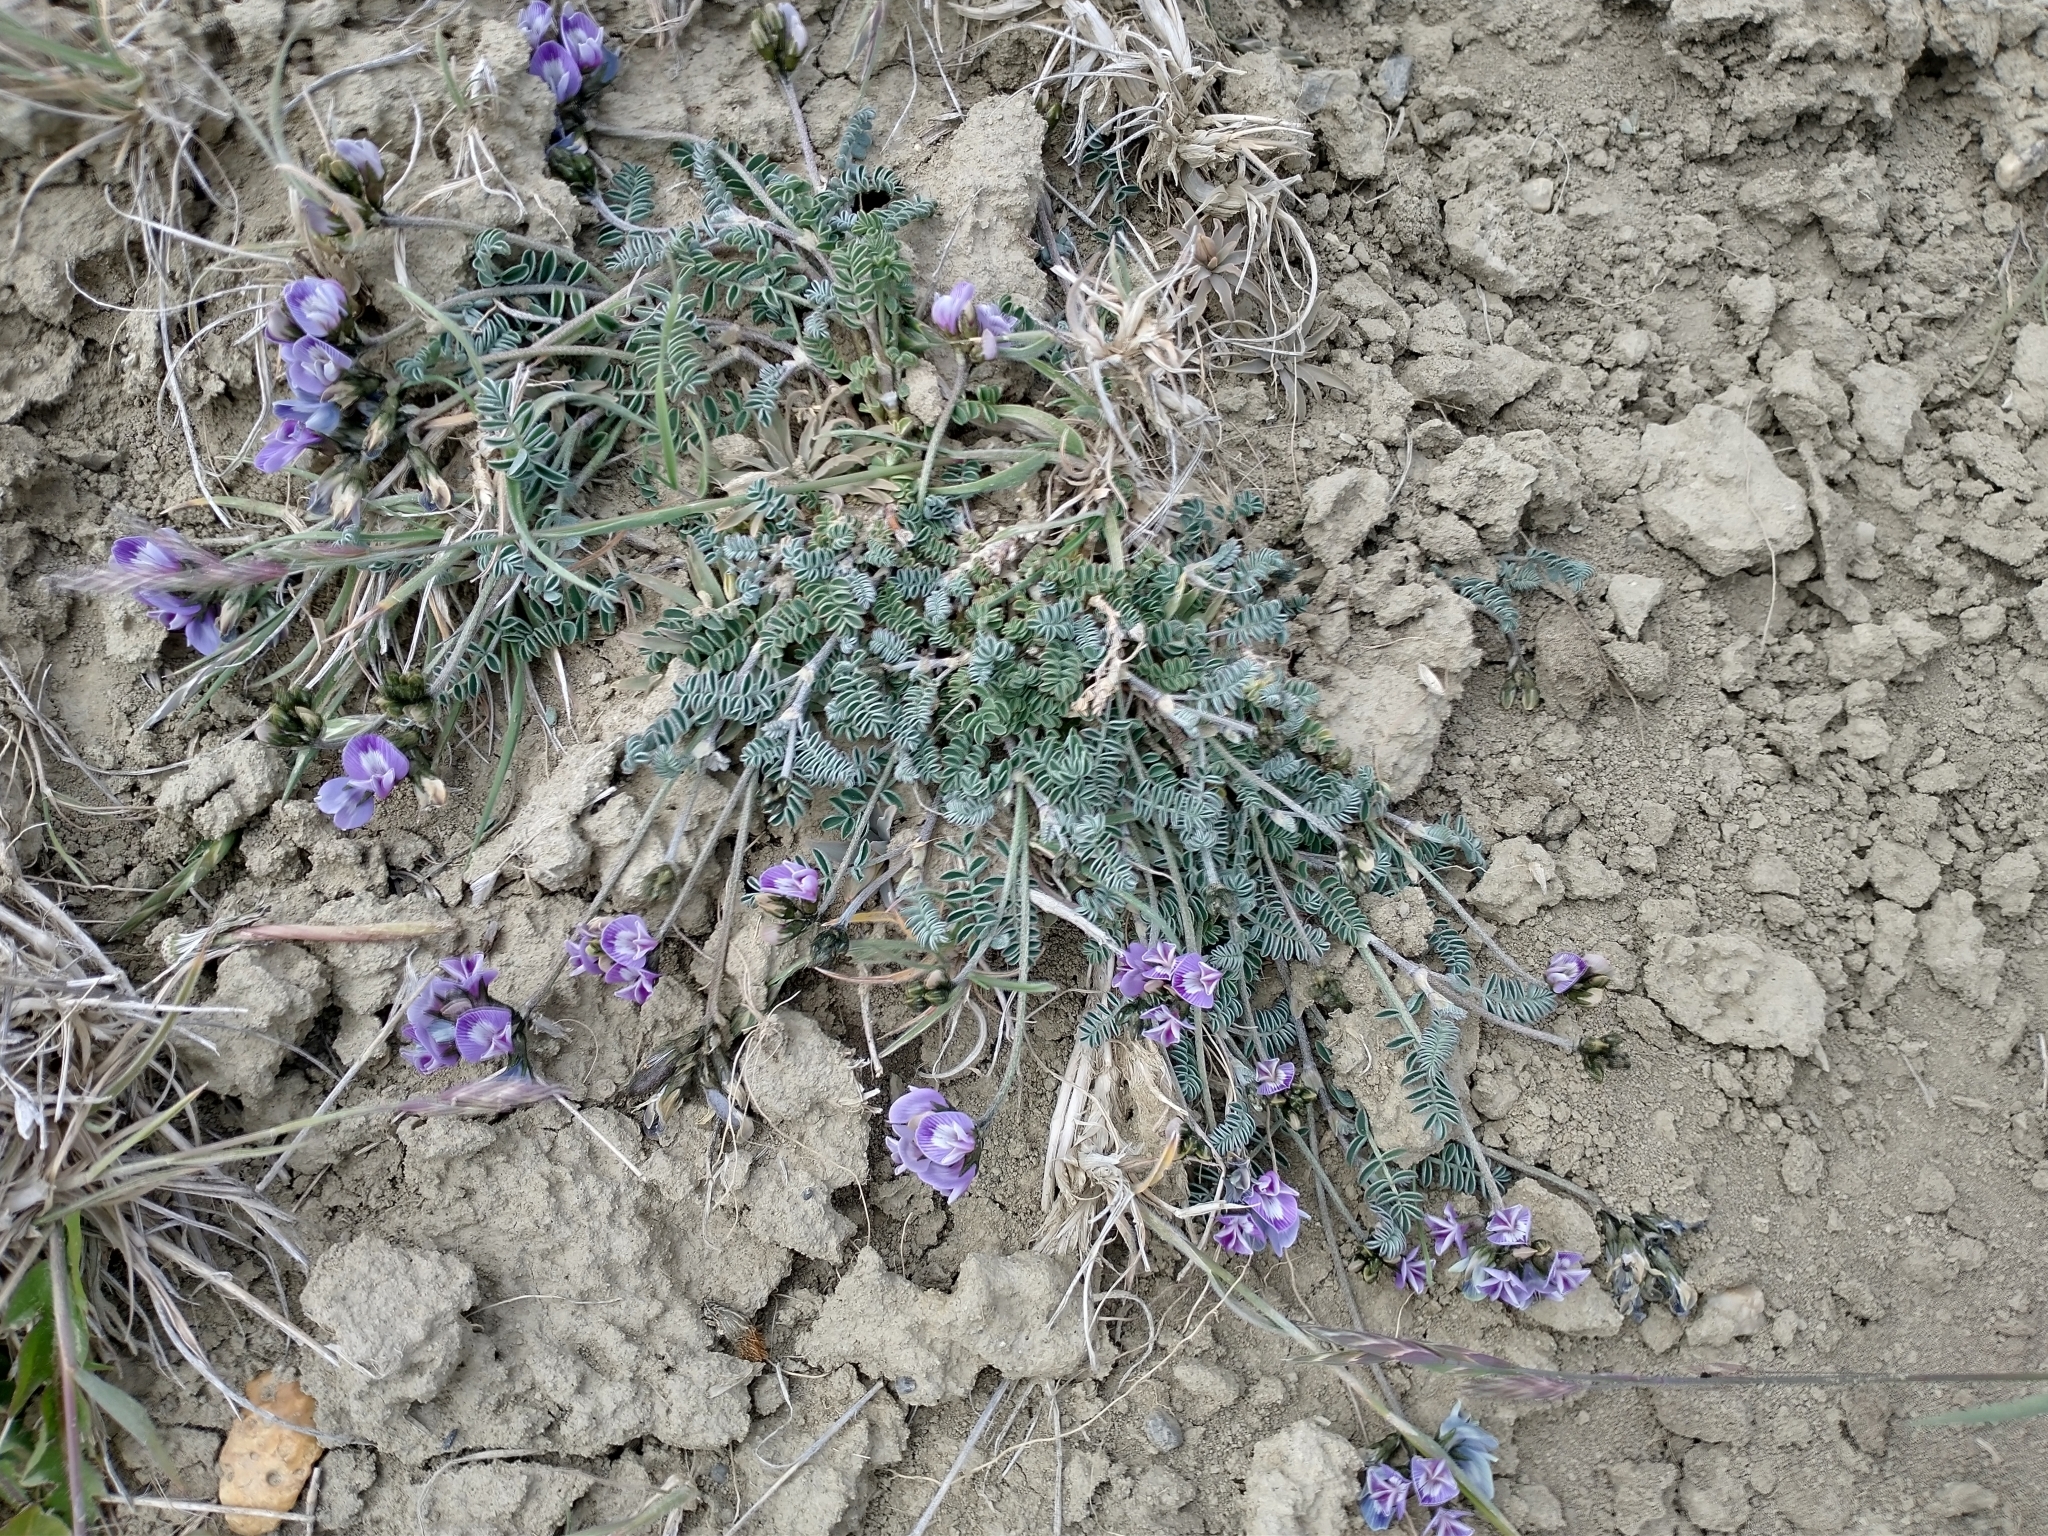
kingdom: Plantae
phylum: Tracheophyta
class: Magnoliopsida
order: Fabales
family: Fabaceae
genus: Astragalus
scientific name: Astragalus palenae
